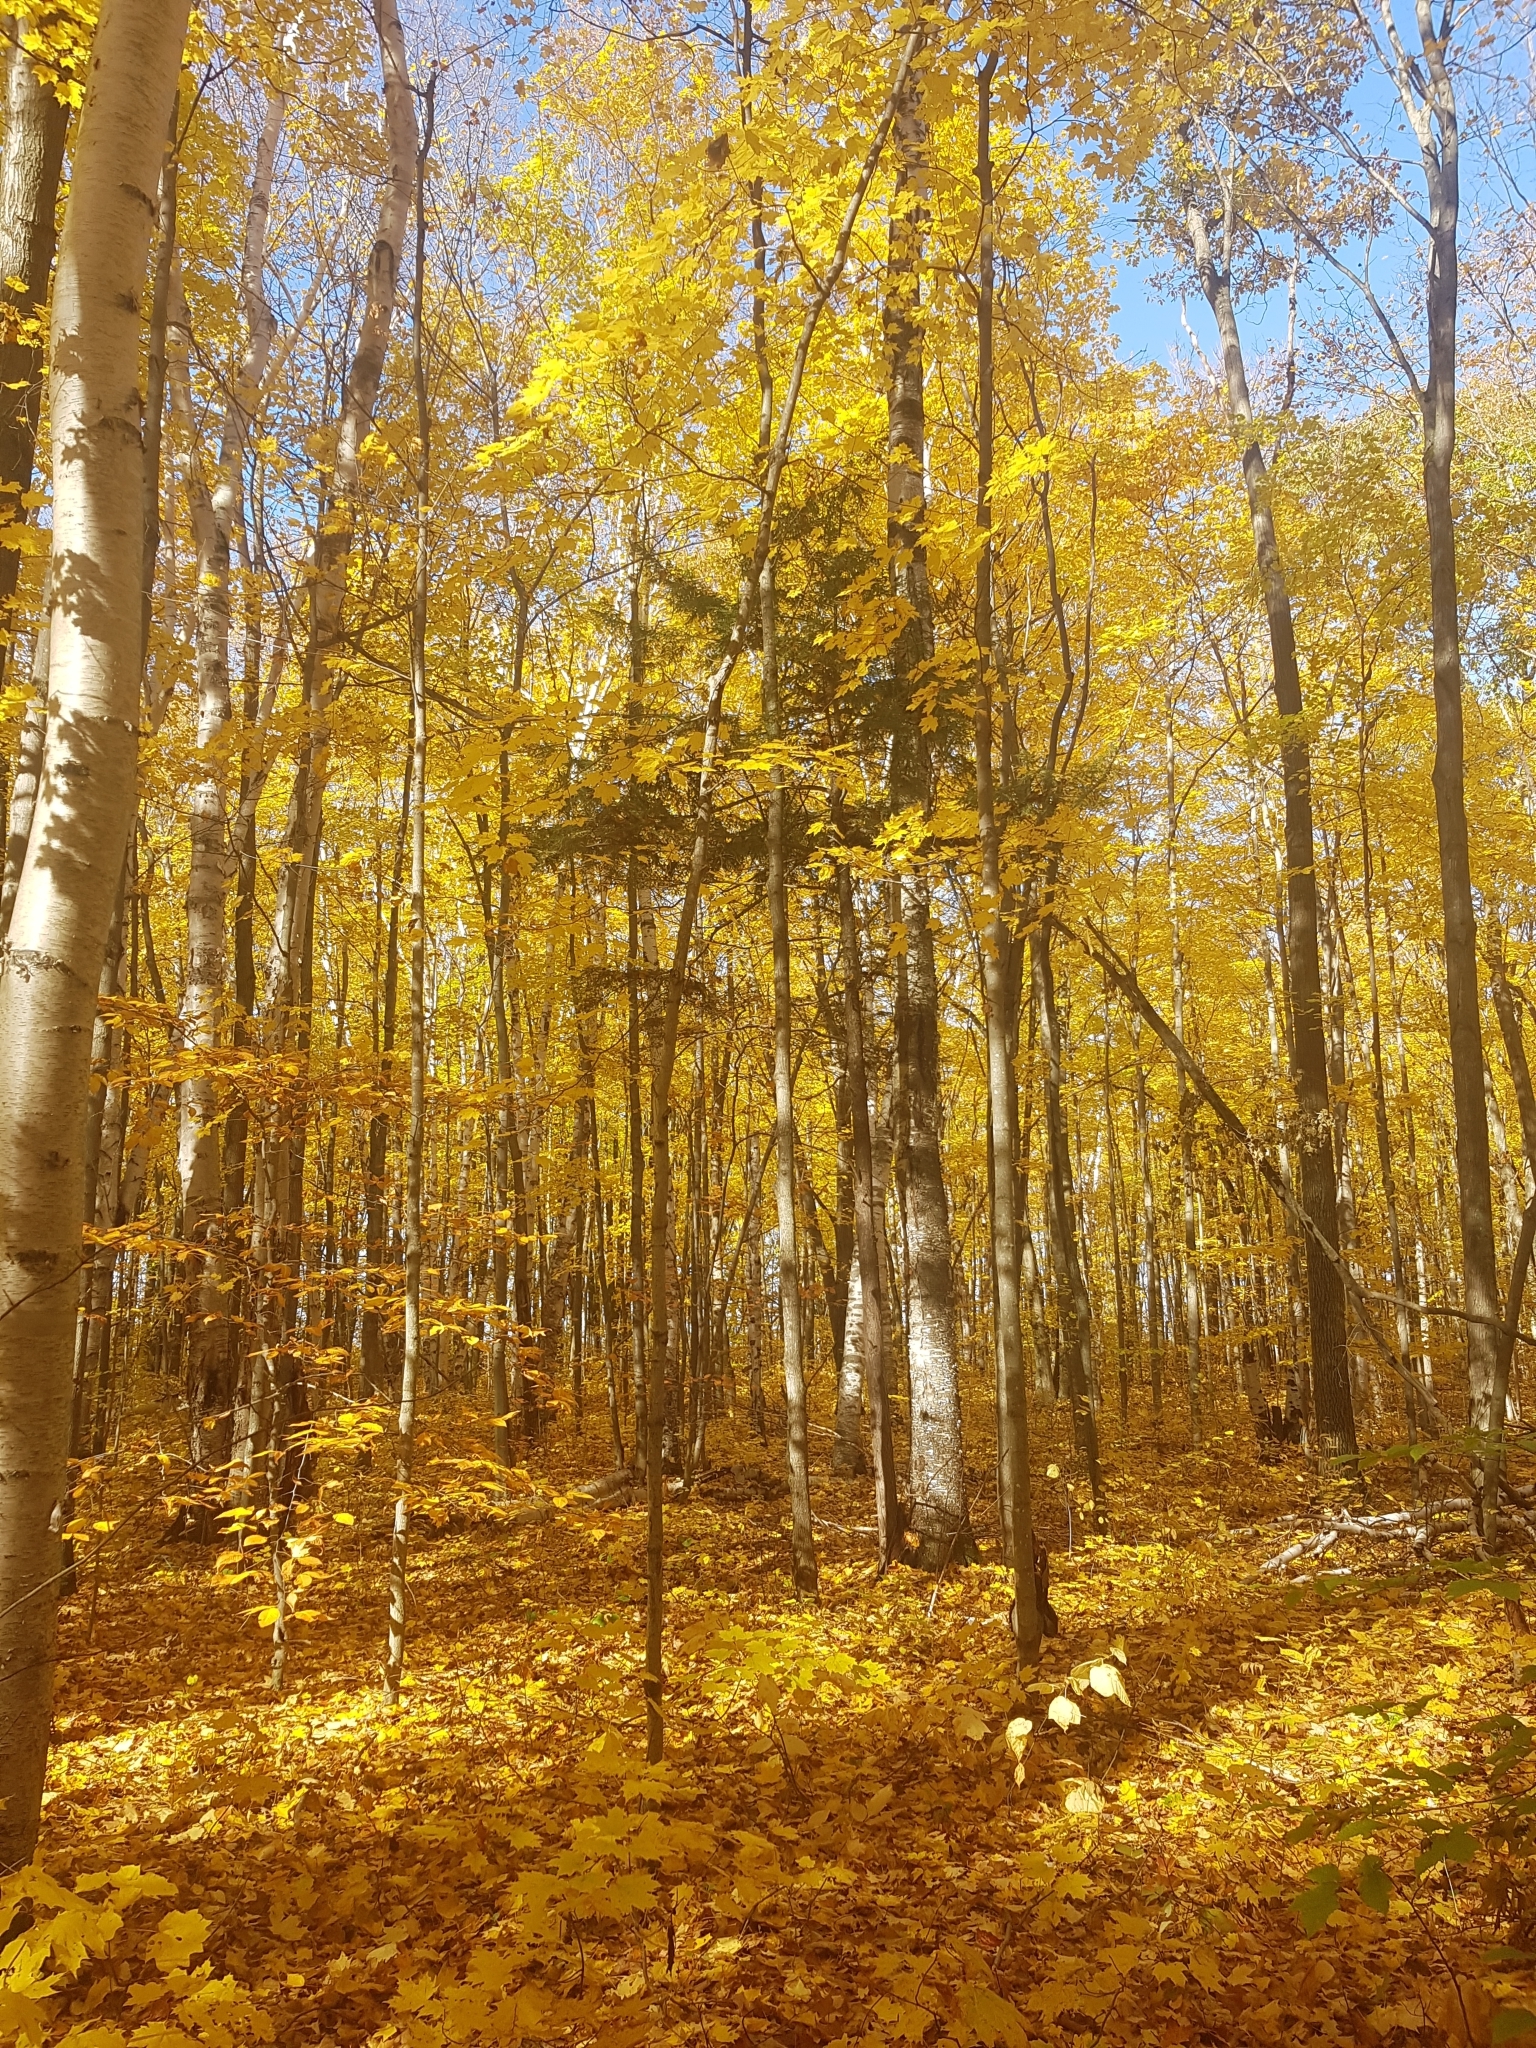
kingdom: Plantae
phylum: Tracheophyta
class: Pinopsida
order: Pinales
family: Pinaceae
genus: Tsuga
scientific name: Tsuga canadensis
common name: Eastern hemlock
